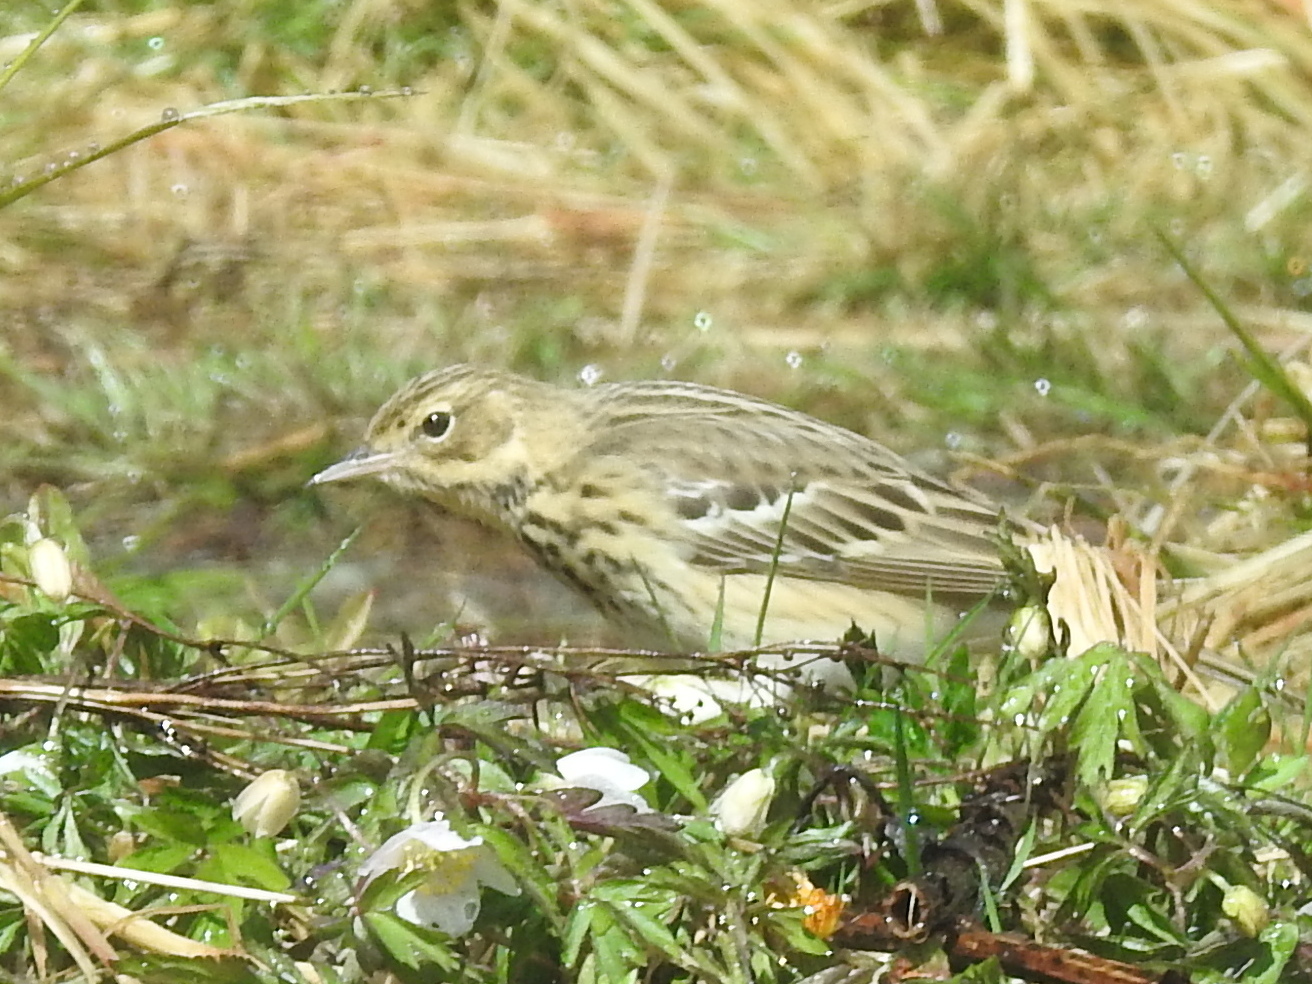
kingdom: Animalia
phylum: Chordata
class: Aves
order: Passeriformes
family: Motacillidae
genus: Anthus
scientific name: Anthus trivialis
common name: Tree pipit
